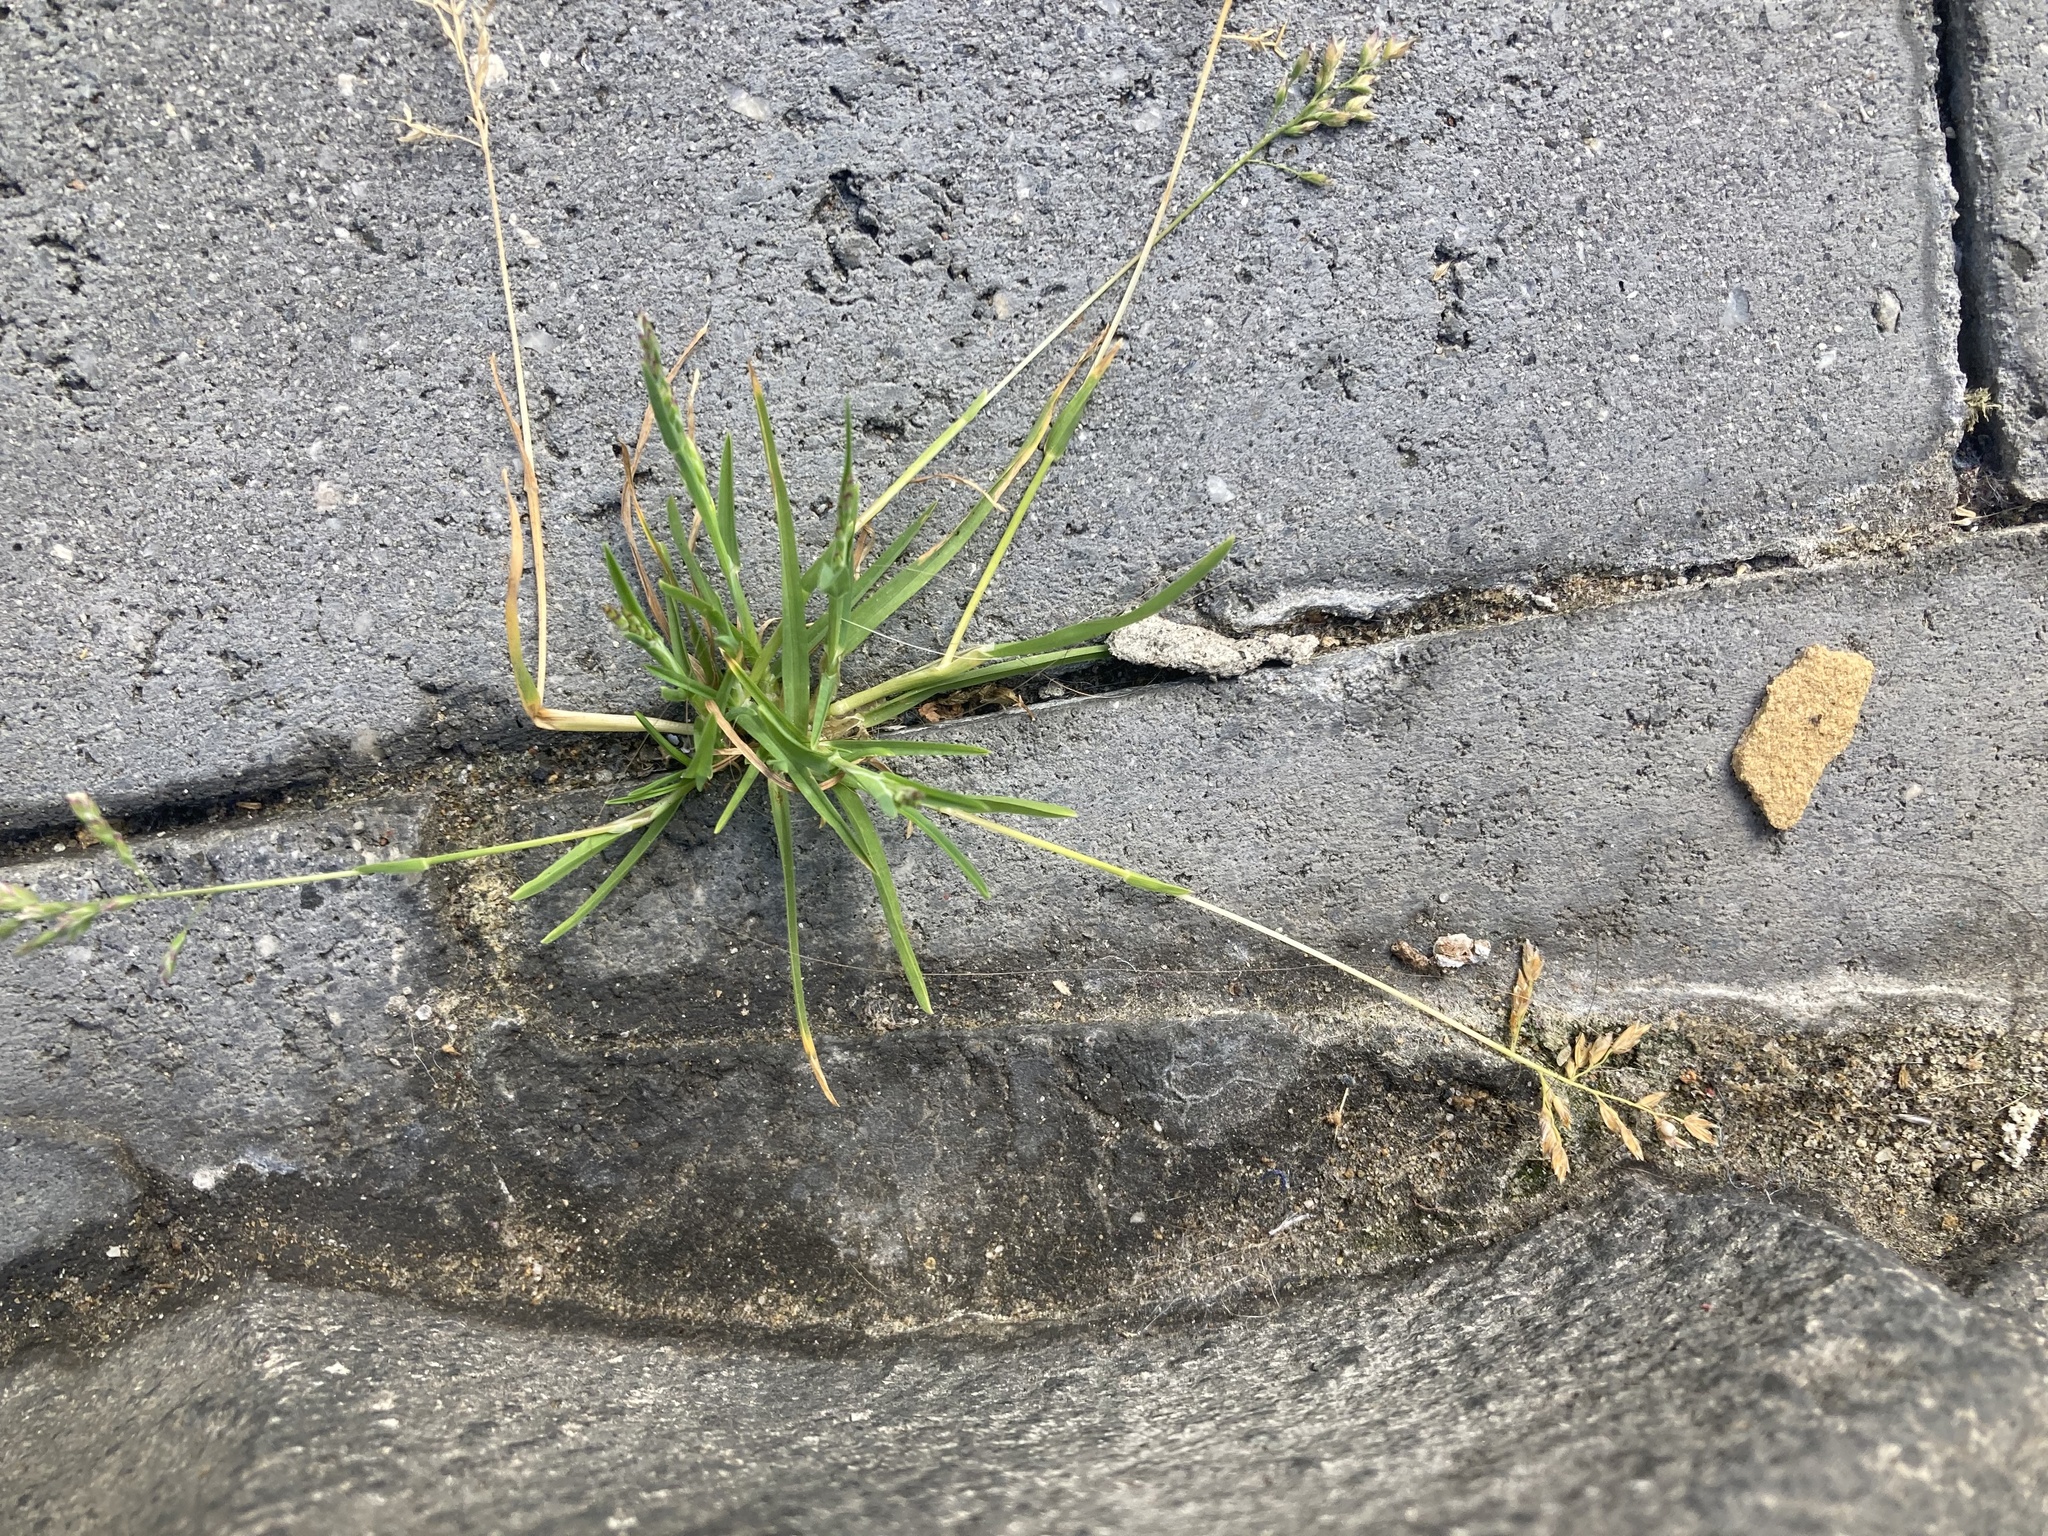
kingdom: Plantae
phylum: Tracheophyta
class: Liliopsida
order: Poales
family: Poaceae
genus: Poa
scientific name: Poa annua
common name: Annual bluegrass
